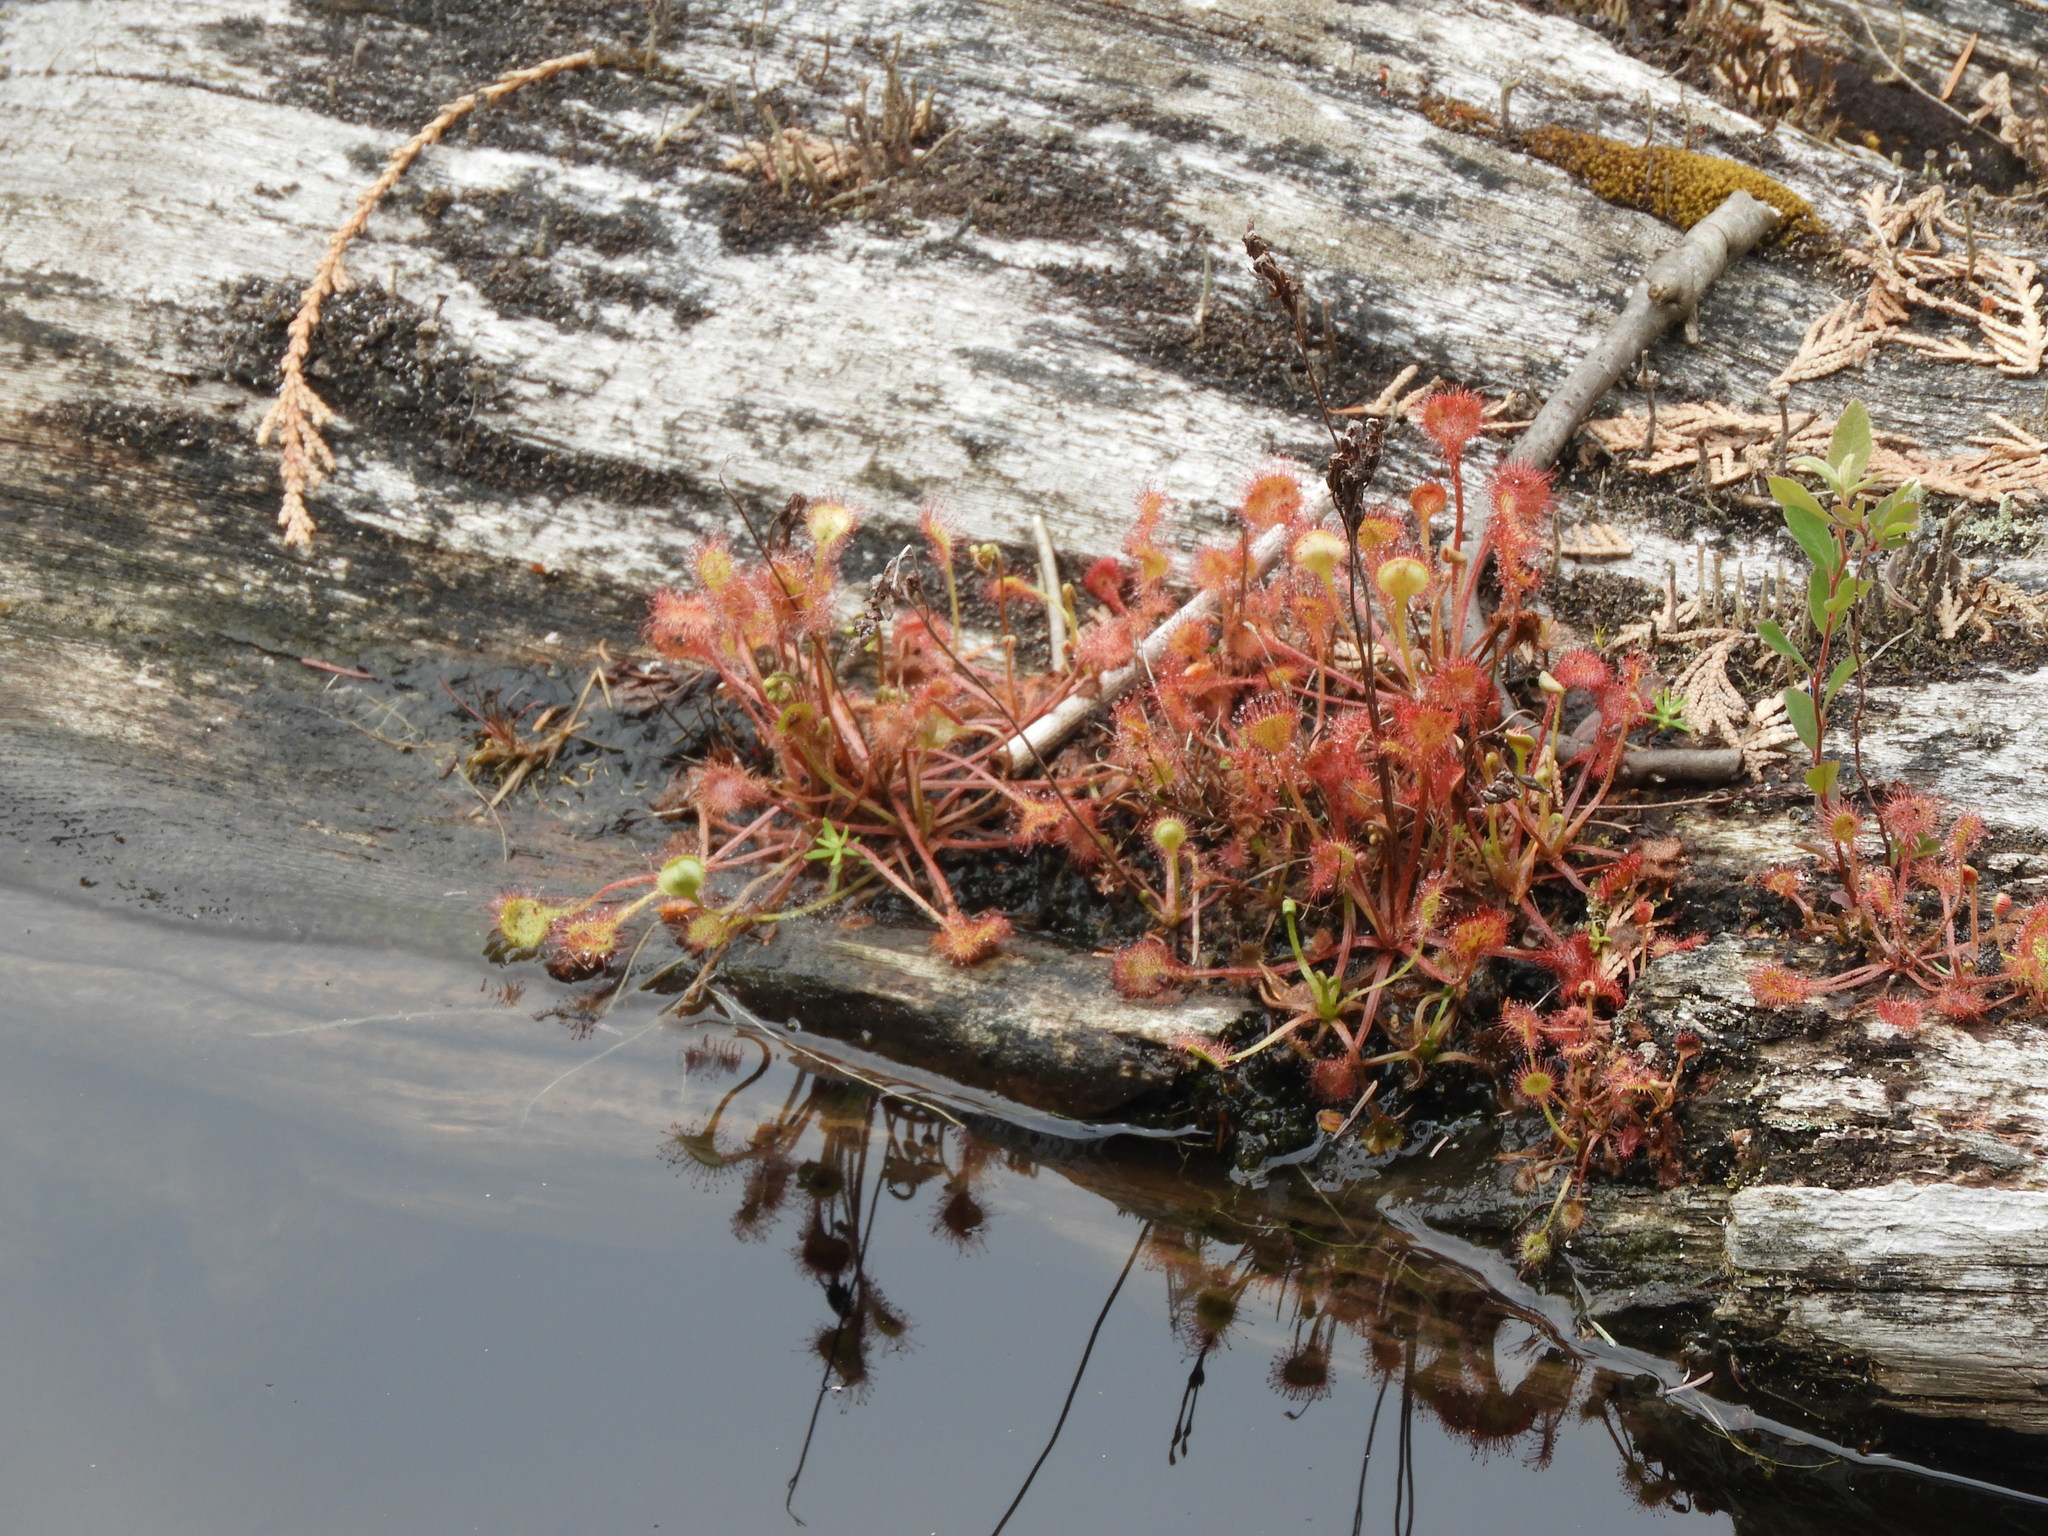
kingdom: Plantae
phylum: Tracheophyta
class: Magnoliopsida
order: Caryophyllales
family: Droseraceae
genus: Drosera
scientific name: Drosera rotundifolia
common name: Round-leaved sundew
